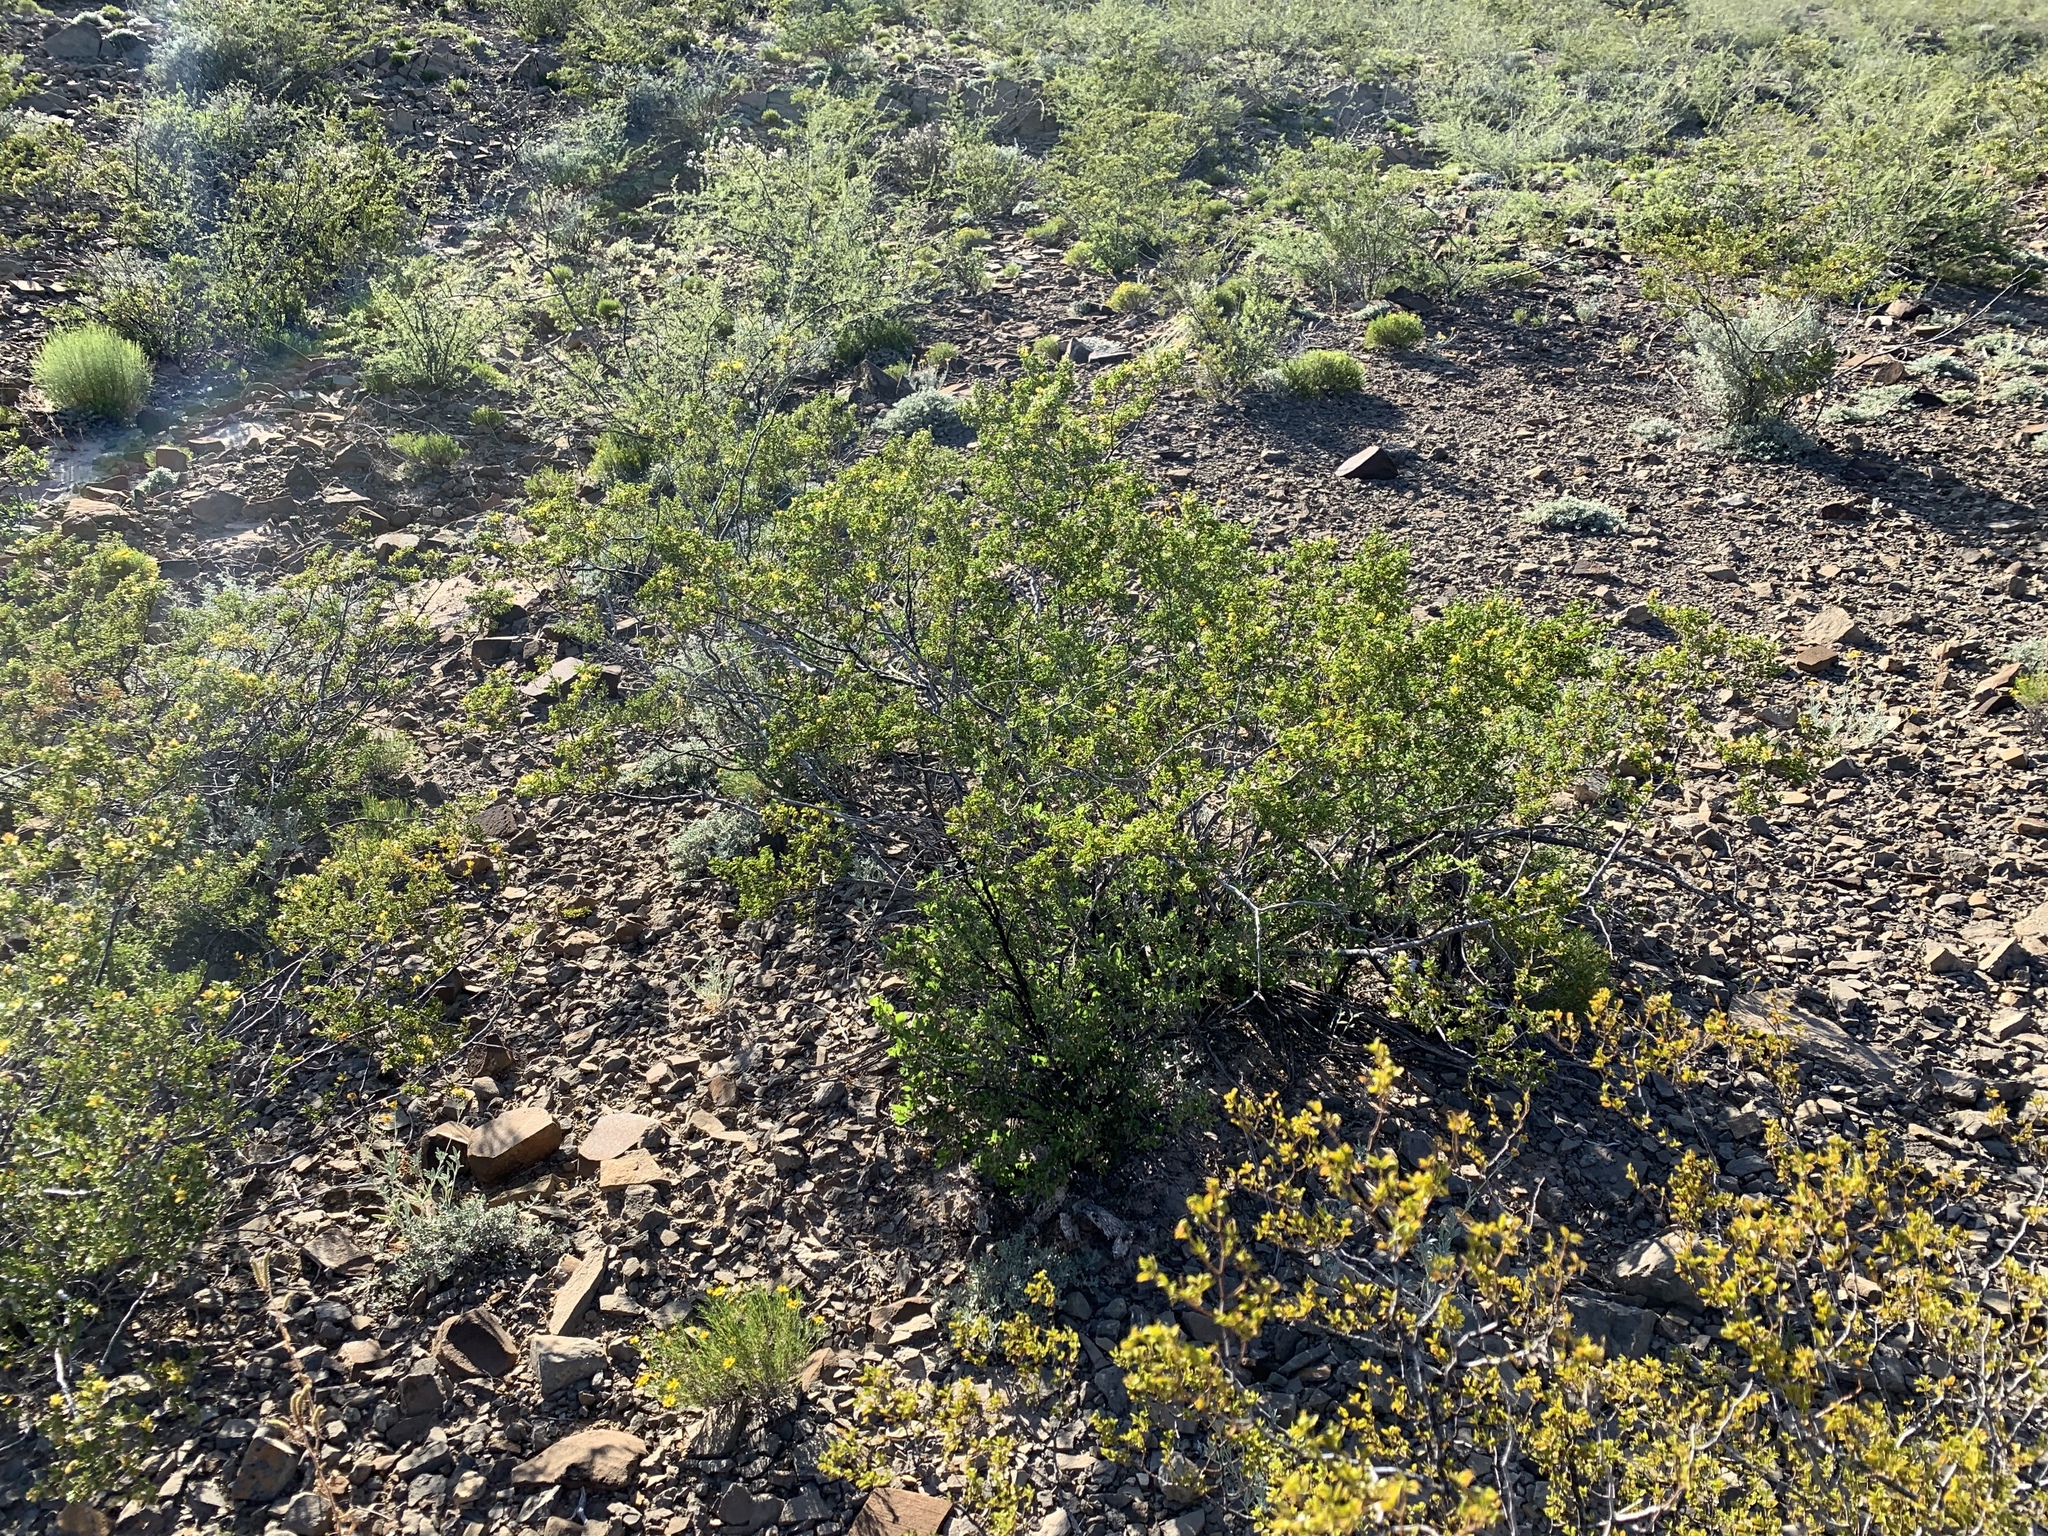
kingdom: Plantae
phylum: Tracheophyta
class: Magnoliopsida
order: Zygophyllales
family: Zygophyllaceae
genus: Larrea
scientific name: Larrea tridentata
